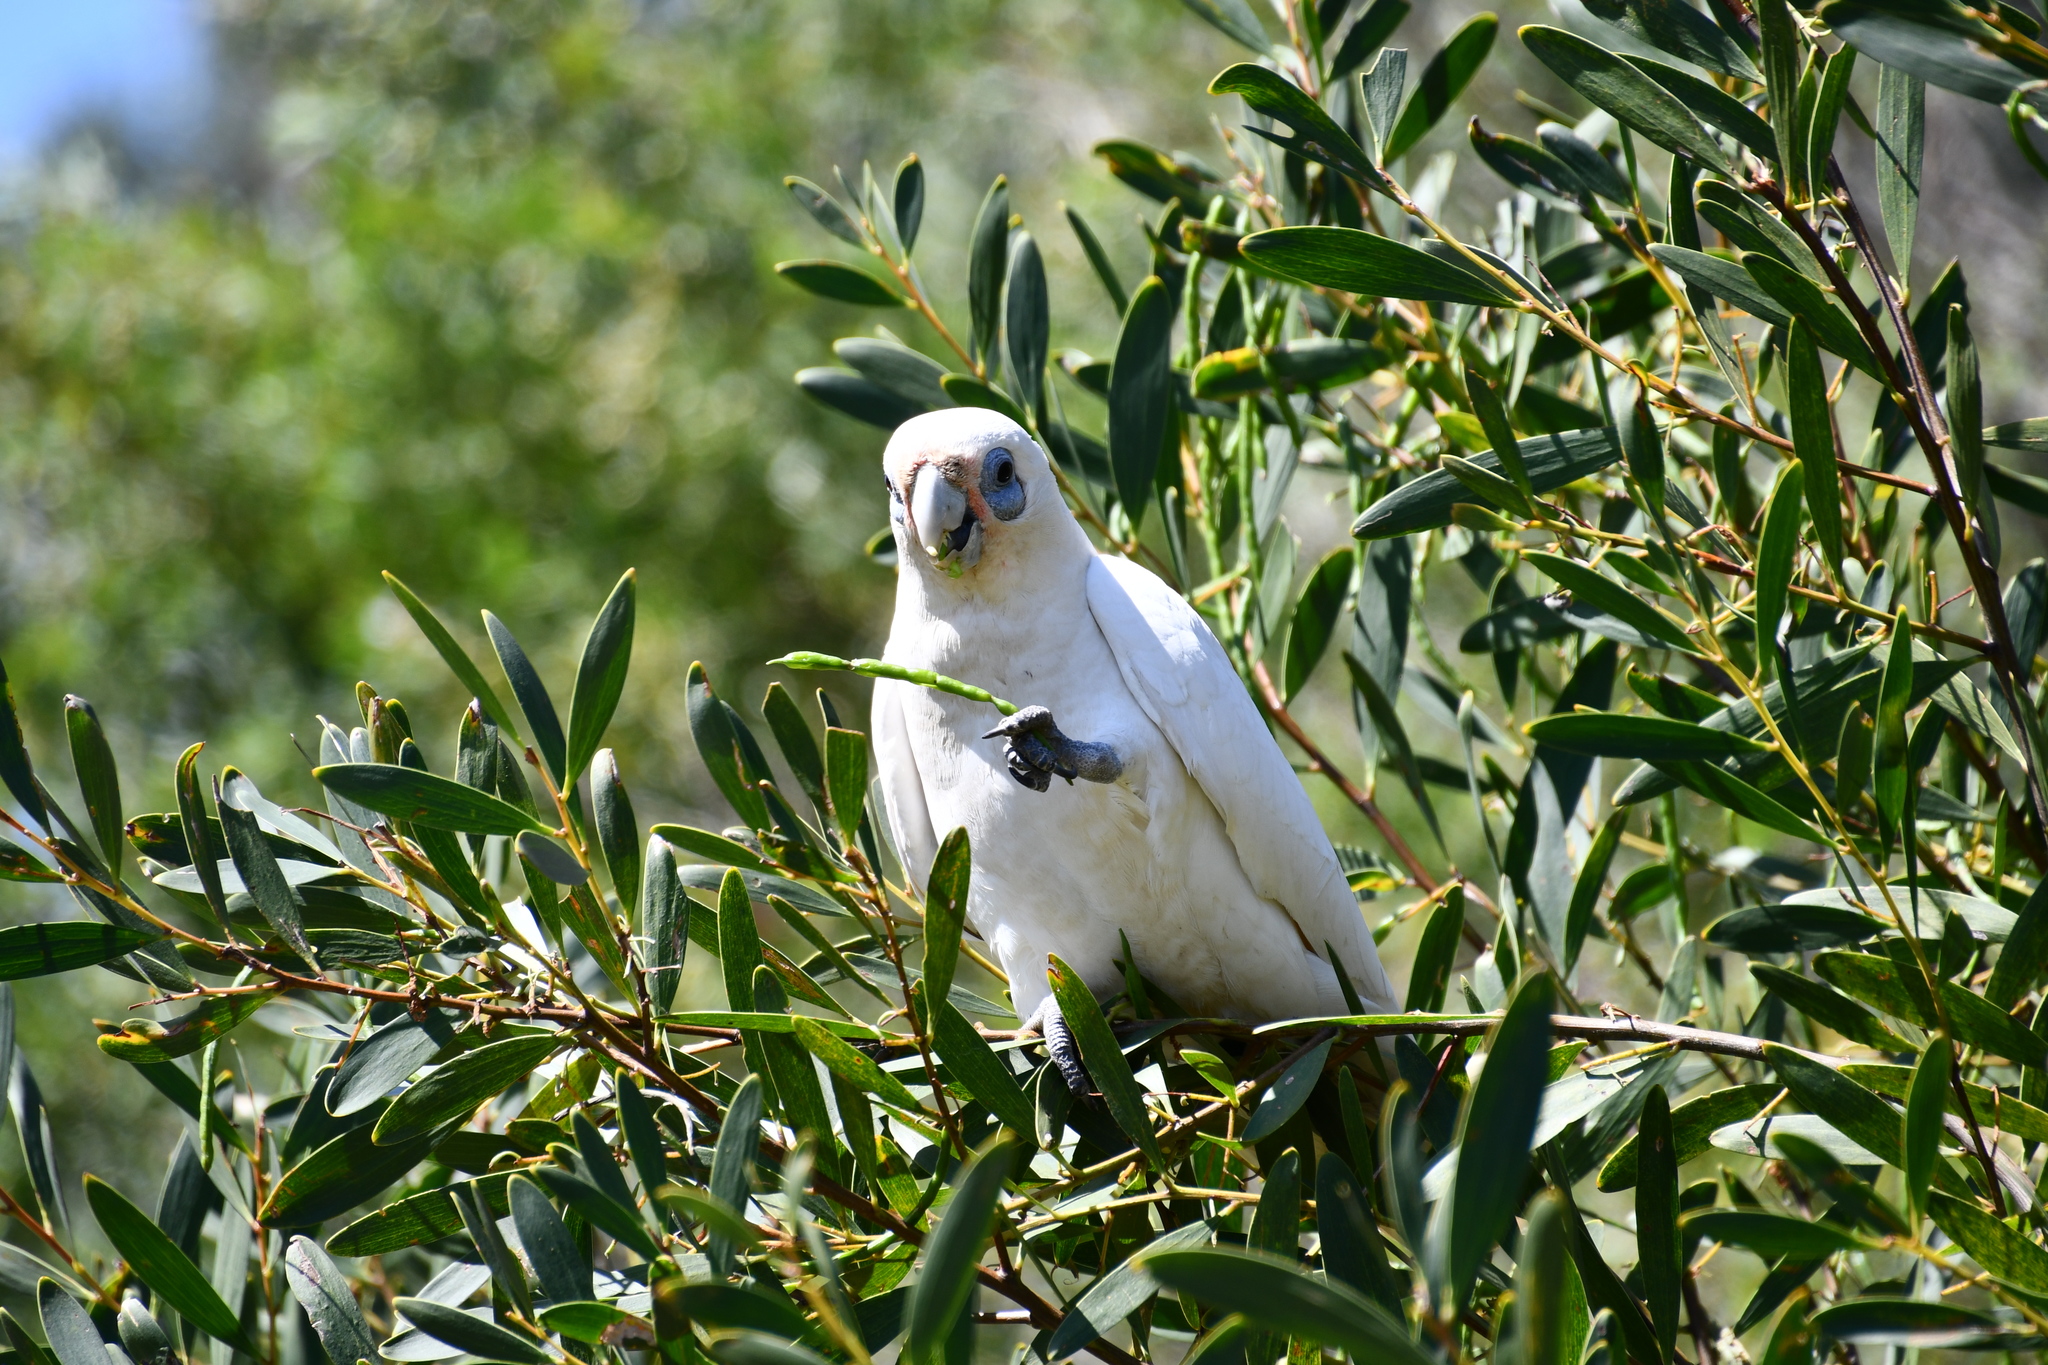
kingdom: Animalia
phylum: Chordata
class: Aves
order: Psittaciformes
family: Psittacidae
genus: Cacatua
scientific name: Cacatua sanguinea
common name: Little corella
